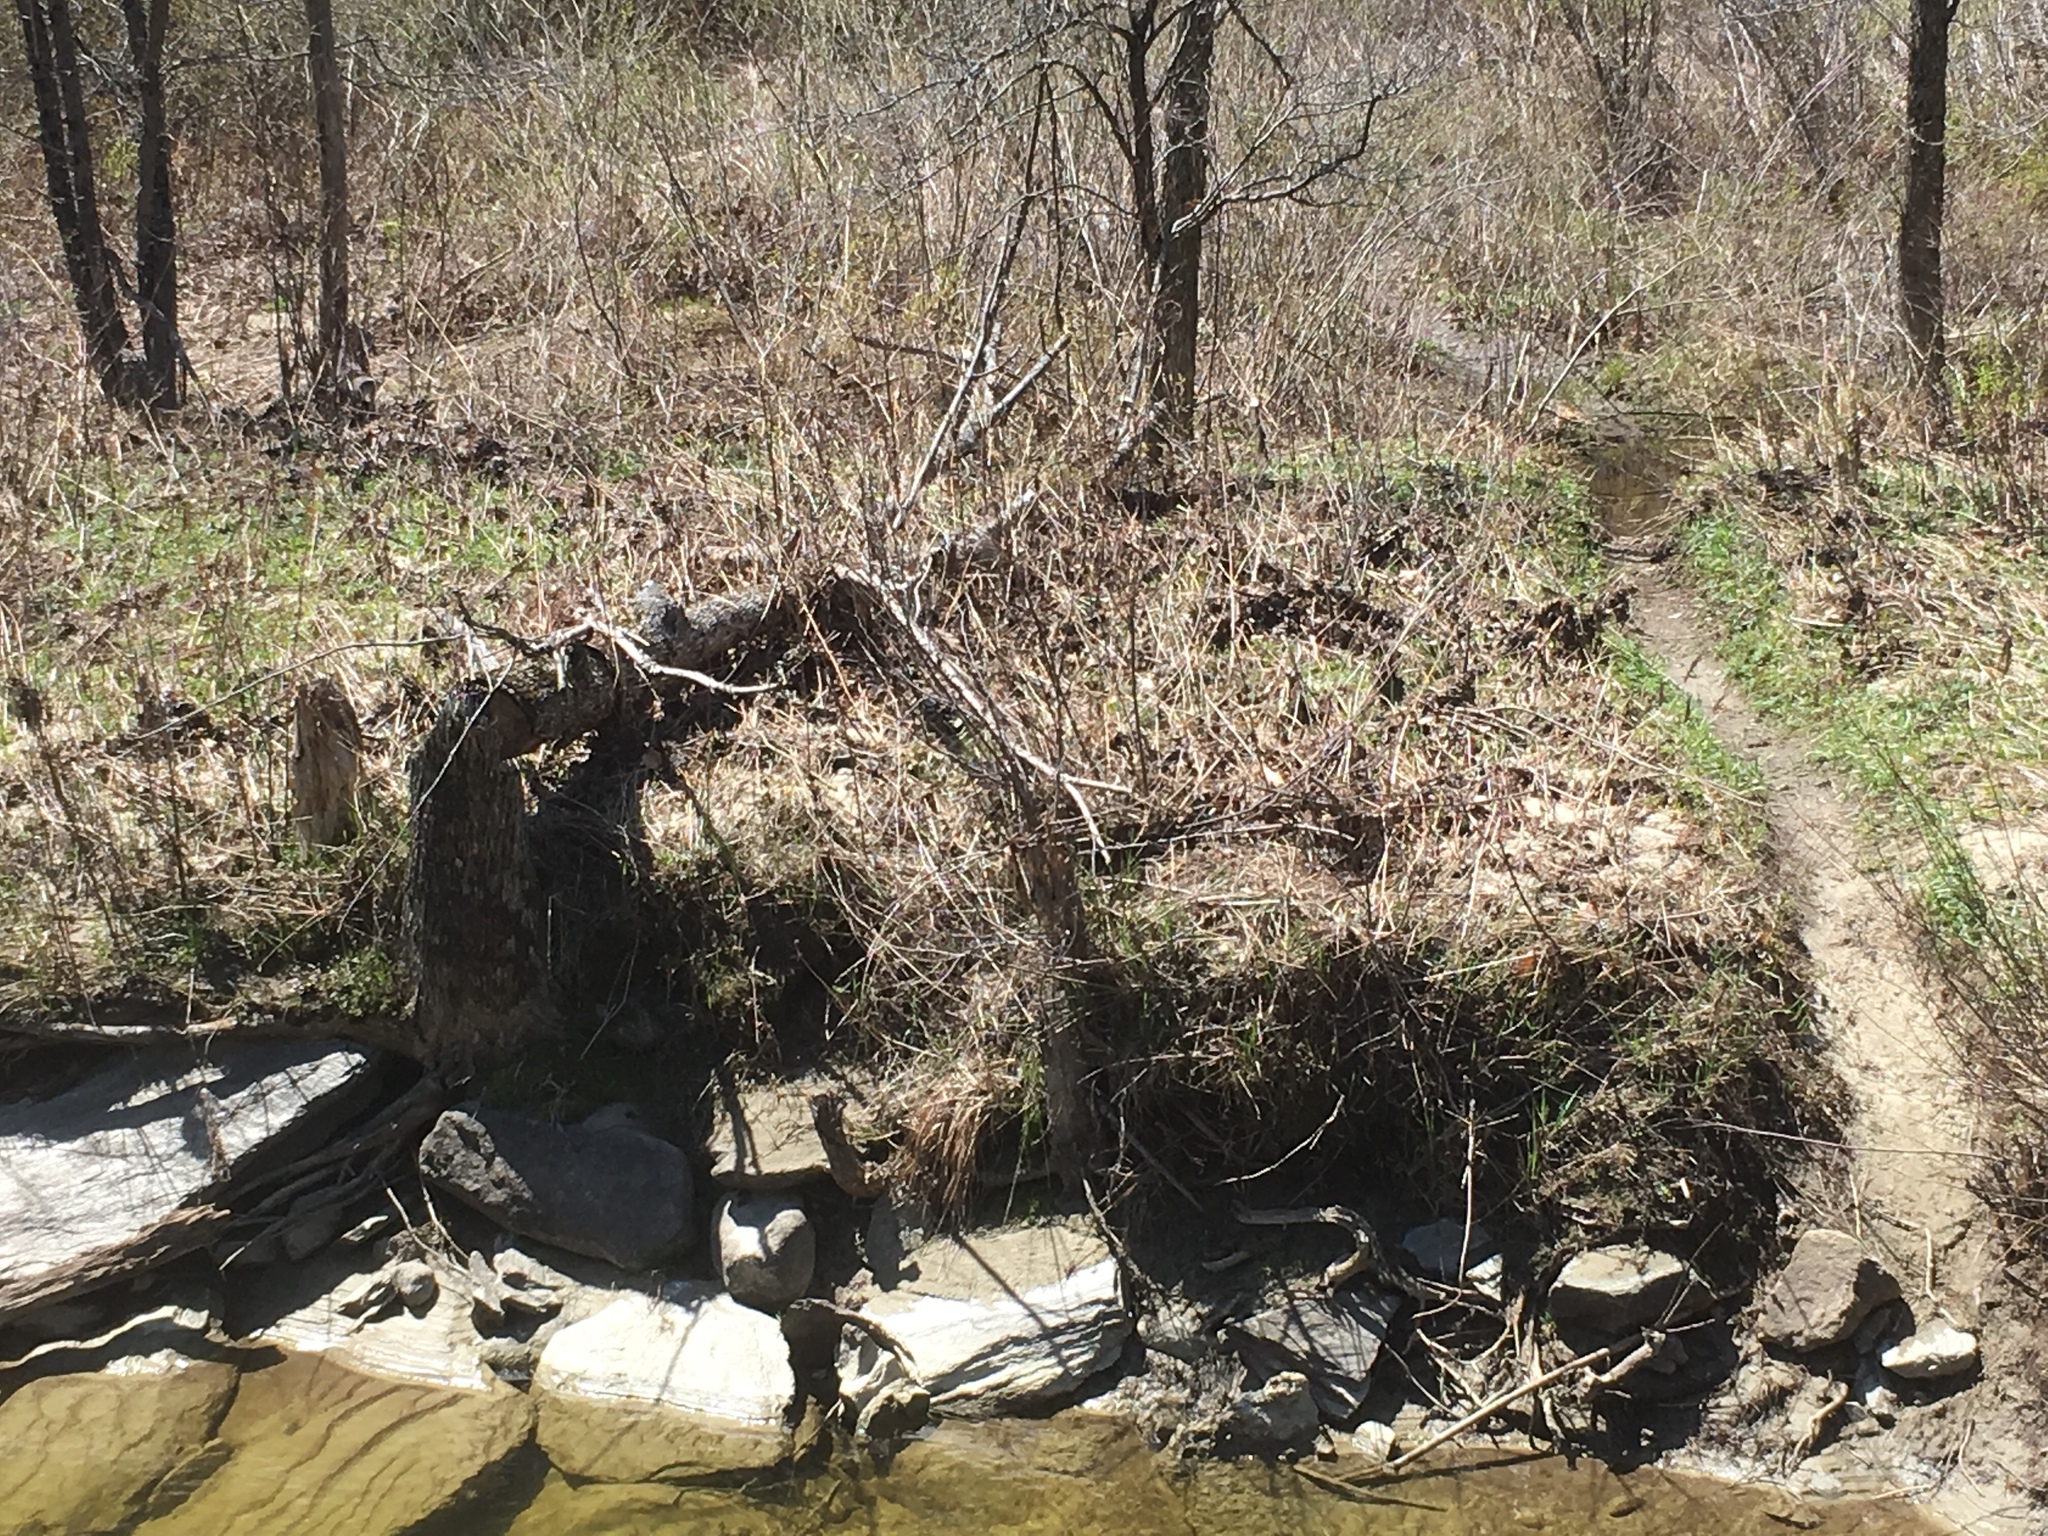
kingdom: Animalia
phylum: Chordata
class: Mammalia
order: Rodentia
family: Castoridae
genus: Castor
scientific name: Castor canadensis
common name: American beaver
